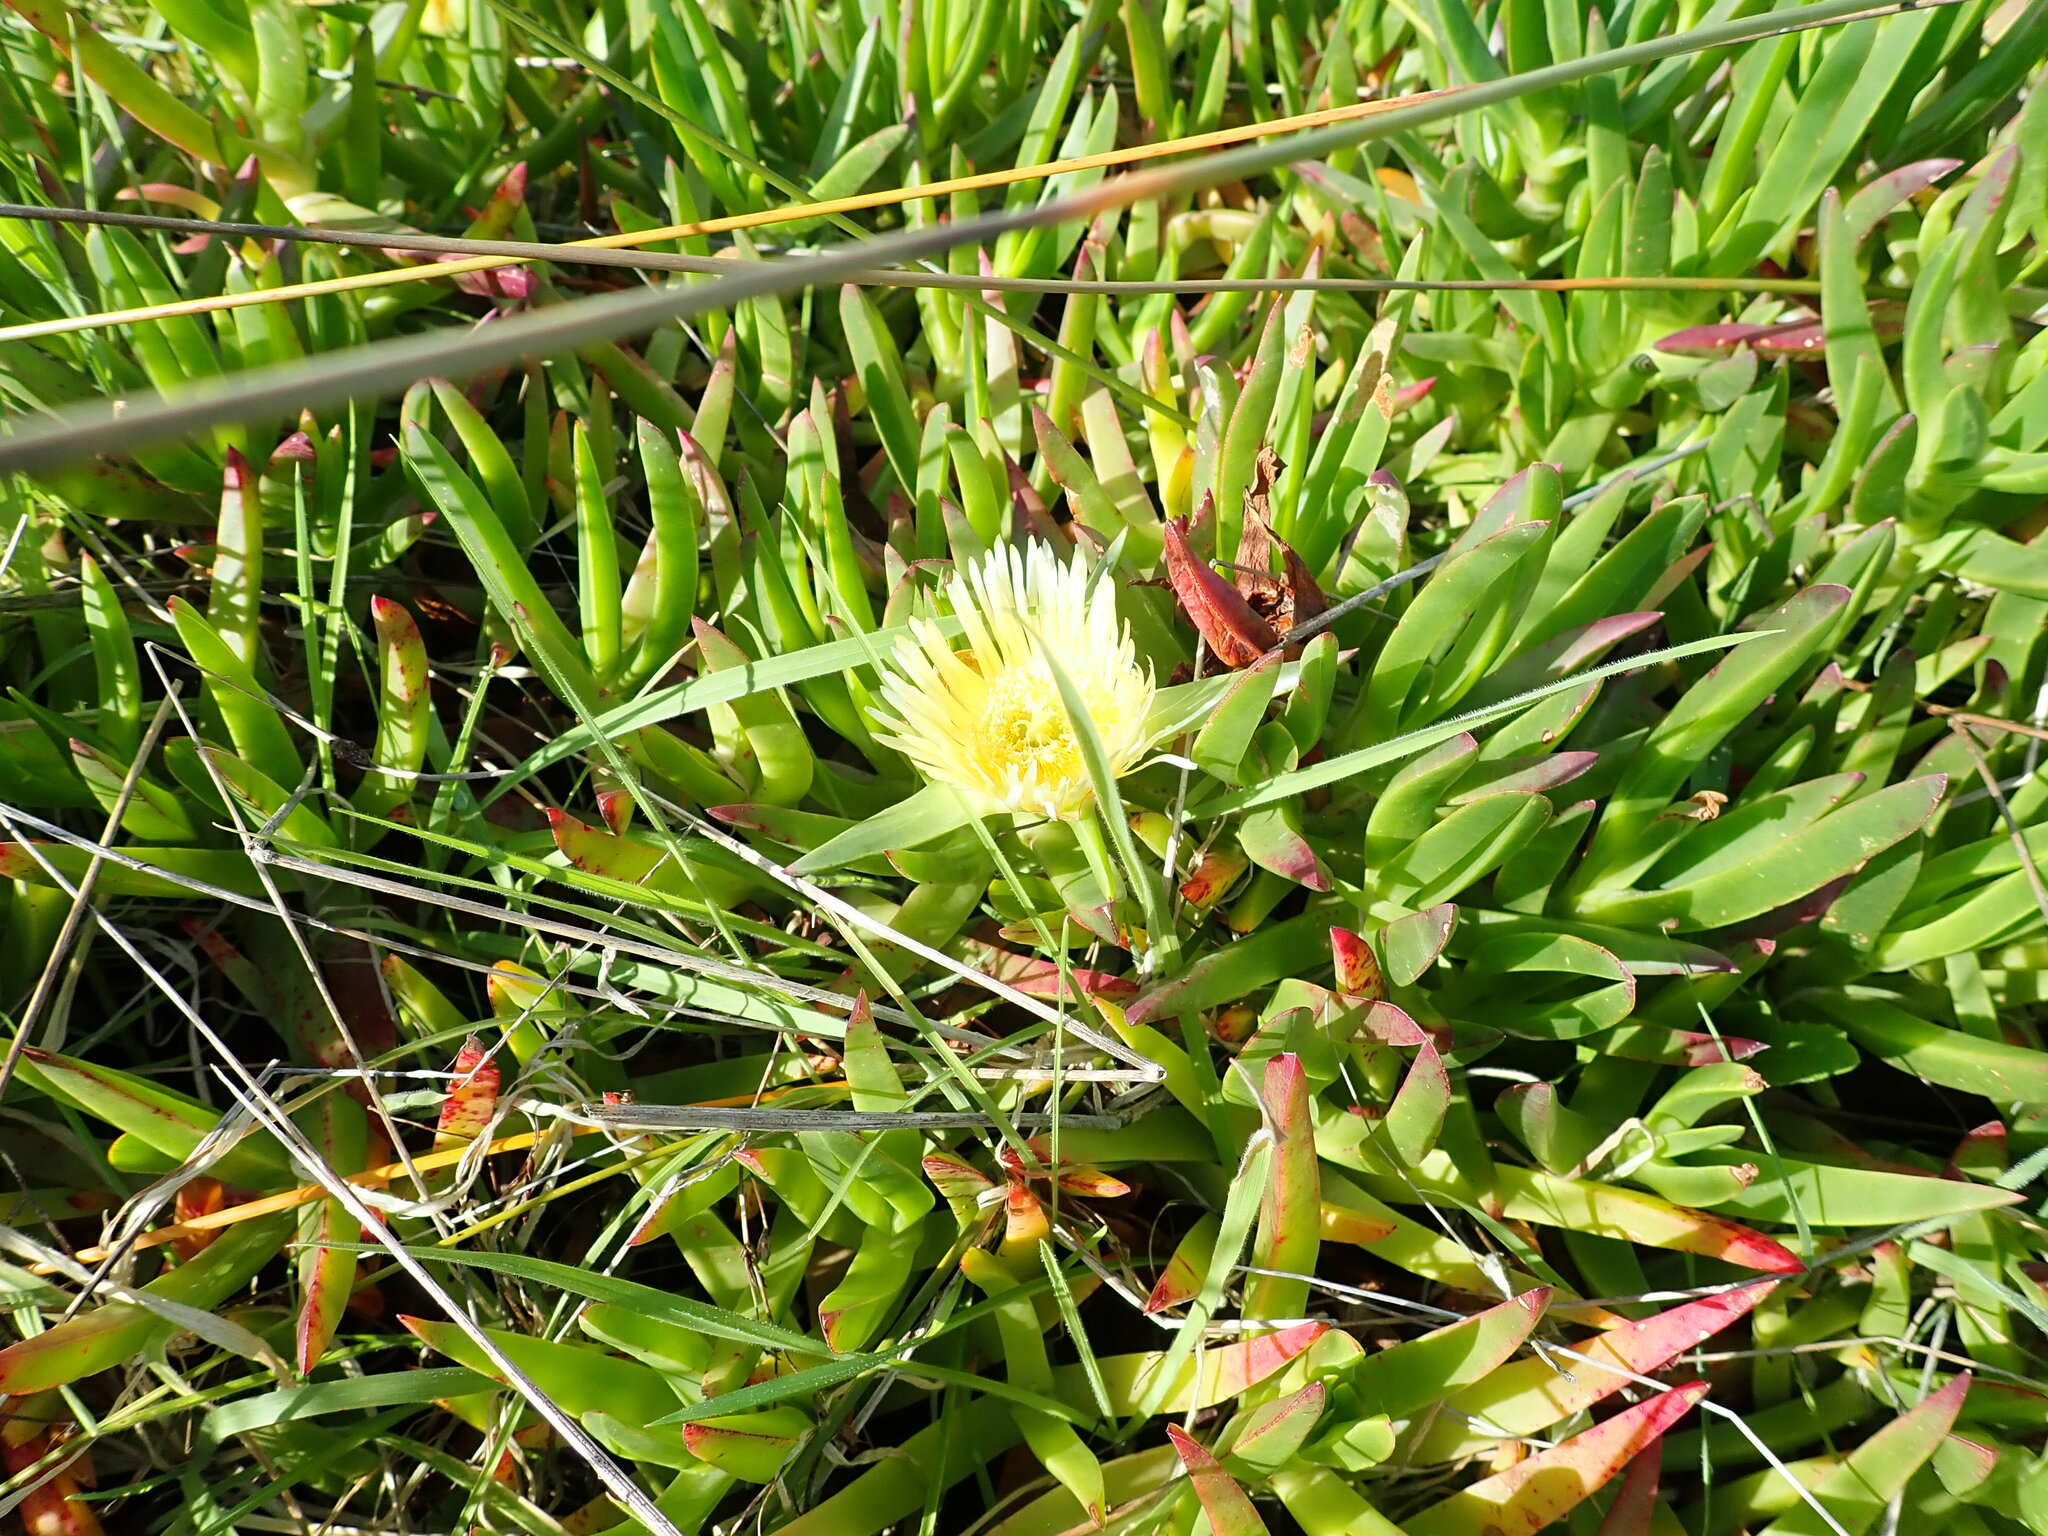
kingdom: Plantae
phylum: Tracheophyta
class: Magnoliopsida
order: Caryophyllales
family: Aizoaceae
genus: Carpobrotus
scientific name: Carpobrotus edulis
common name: Hottentot-fig
